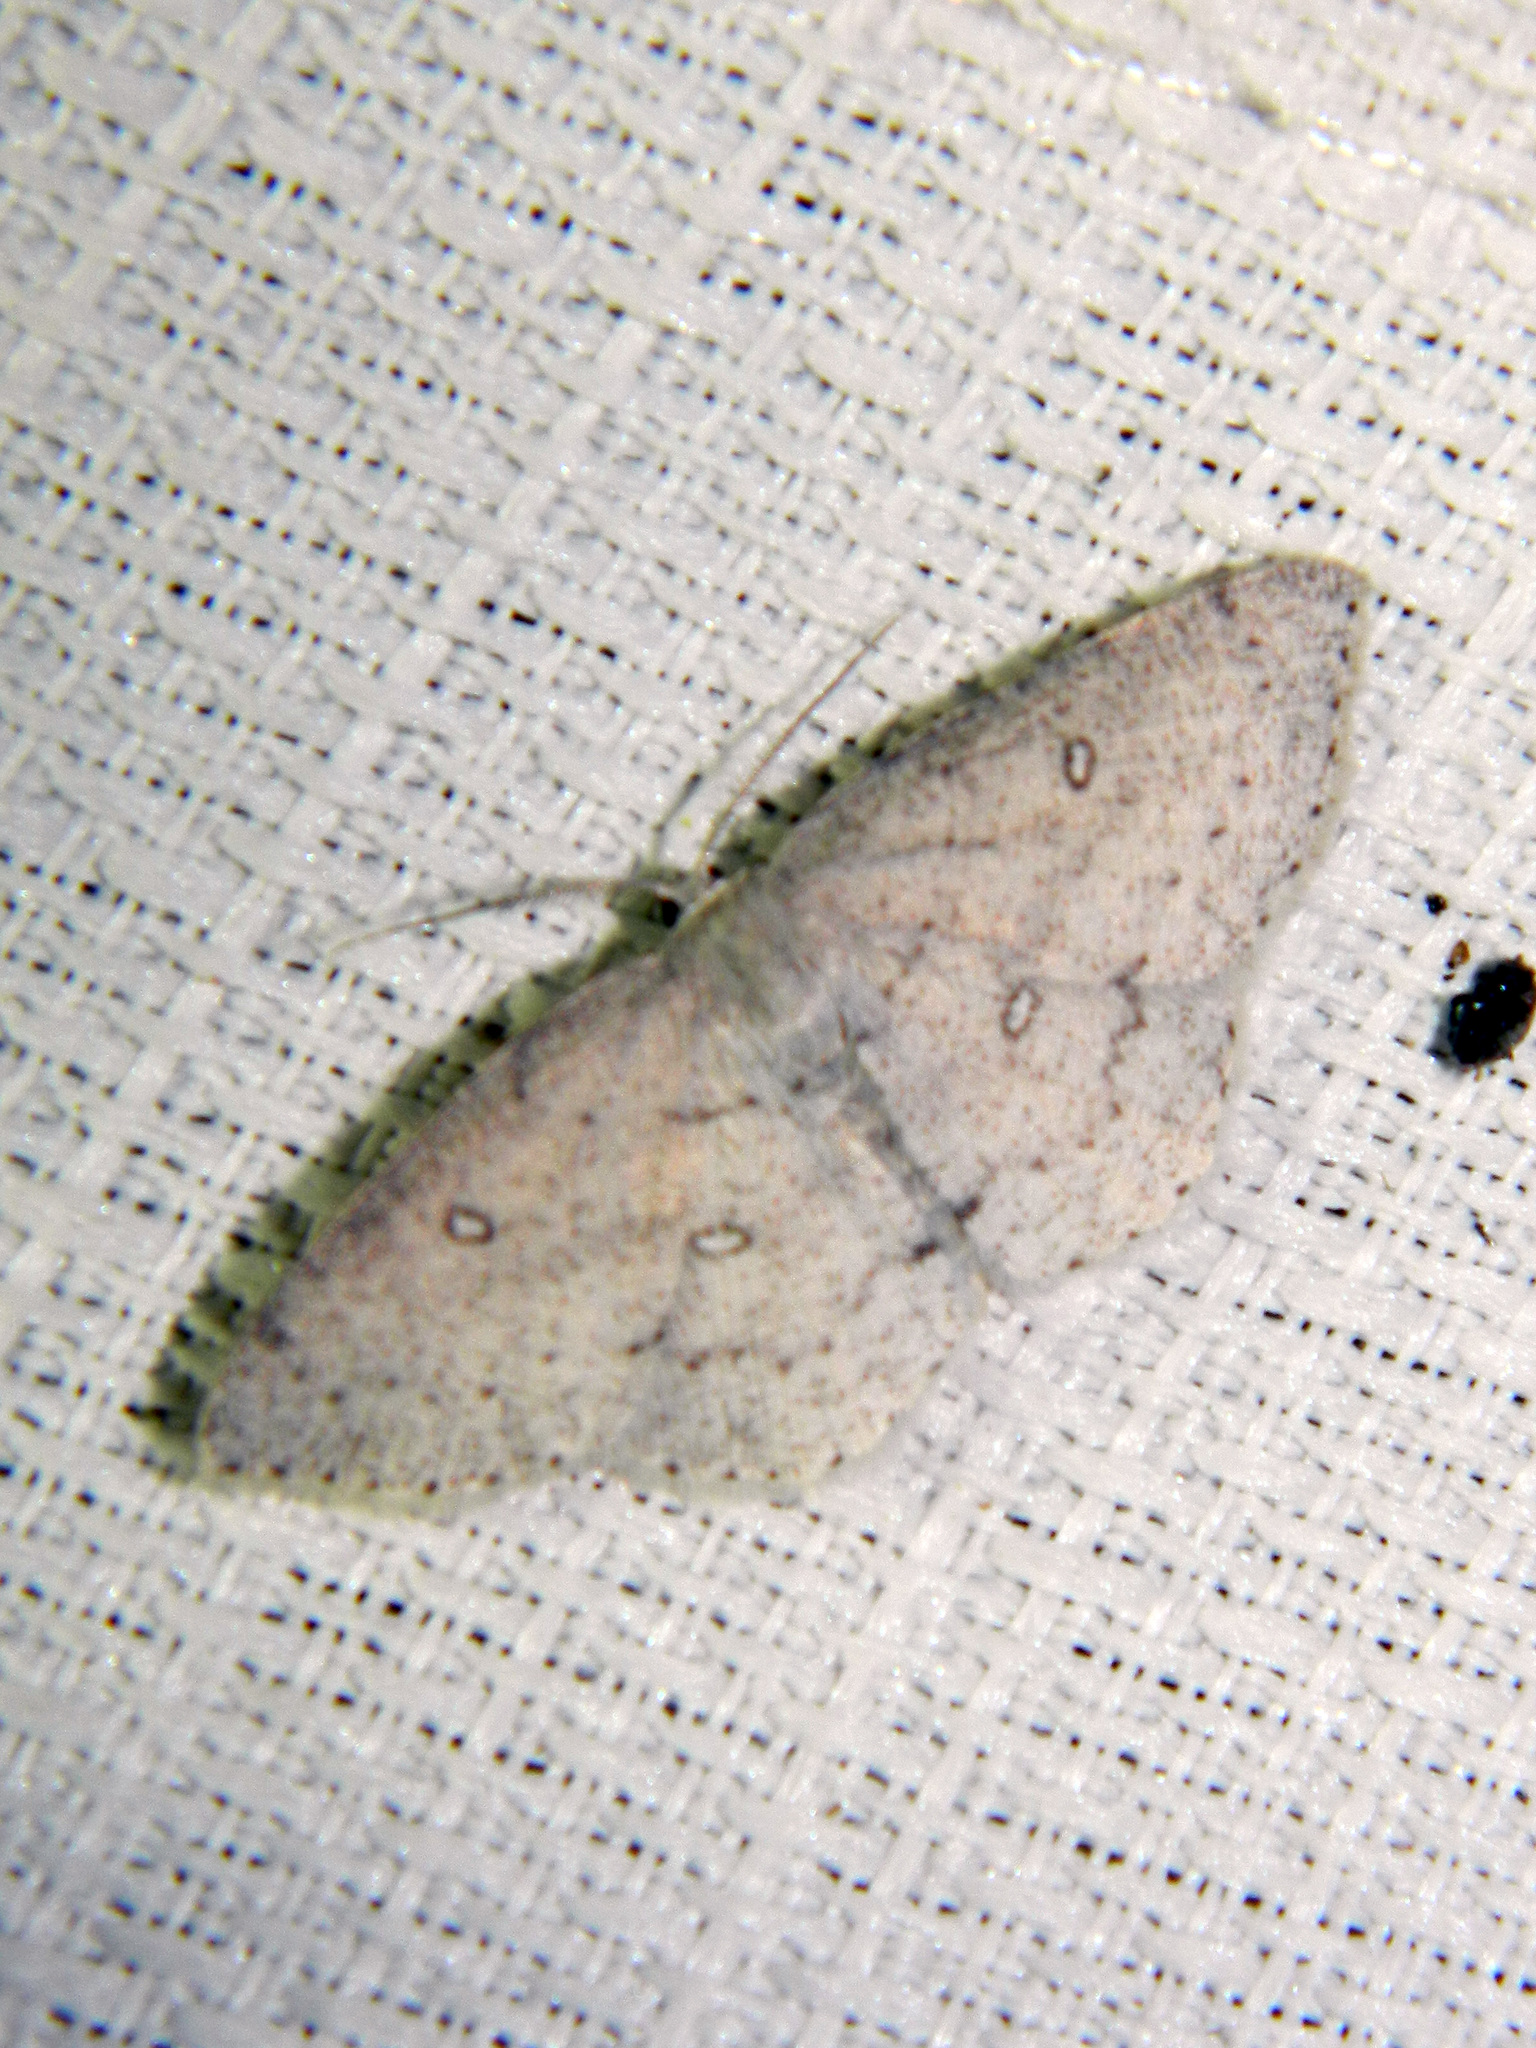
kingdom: Animalia
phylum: Arthropoda
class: Insecta
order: Lepidoptera
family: Geometridae
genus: Cyclophora
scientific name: Cyclophora pendulinaria
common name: Sweet fern geometer
